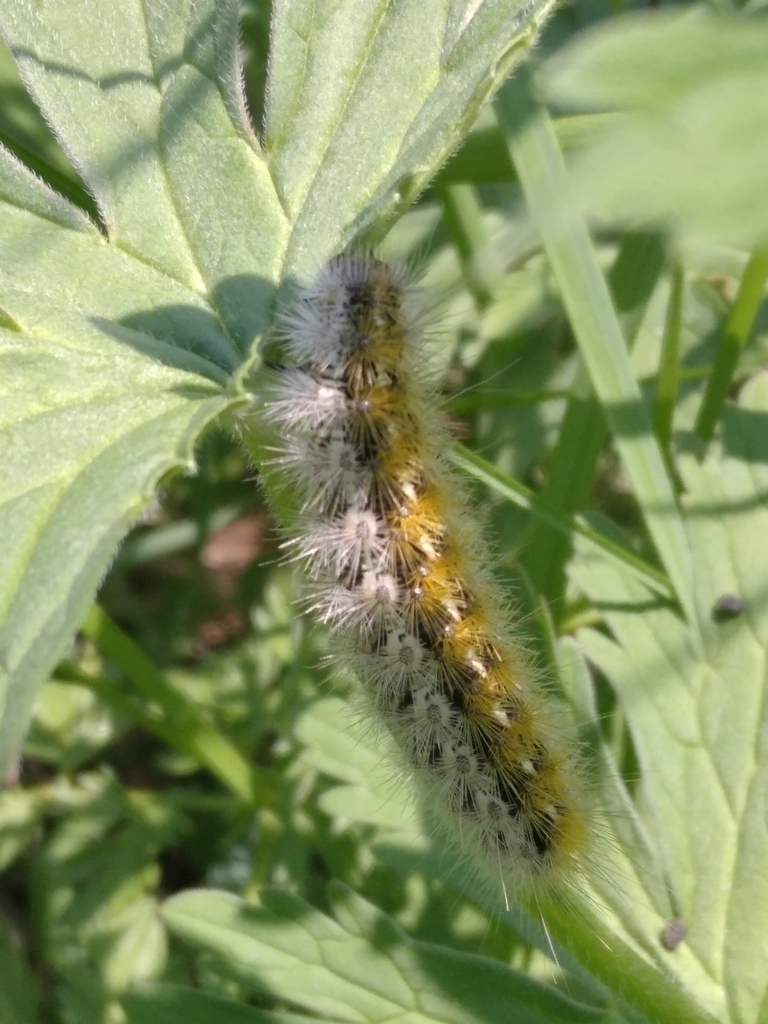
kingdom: Animalia
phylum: Arthropoda
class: Insecta
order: Lepidoptera
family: Erebidae
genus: Rhyparia
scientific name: Rhyparia purpurata
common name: Purple tiger
